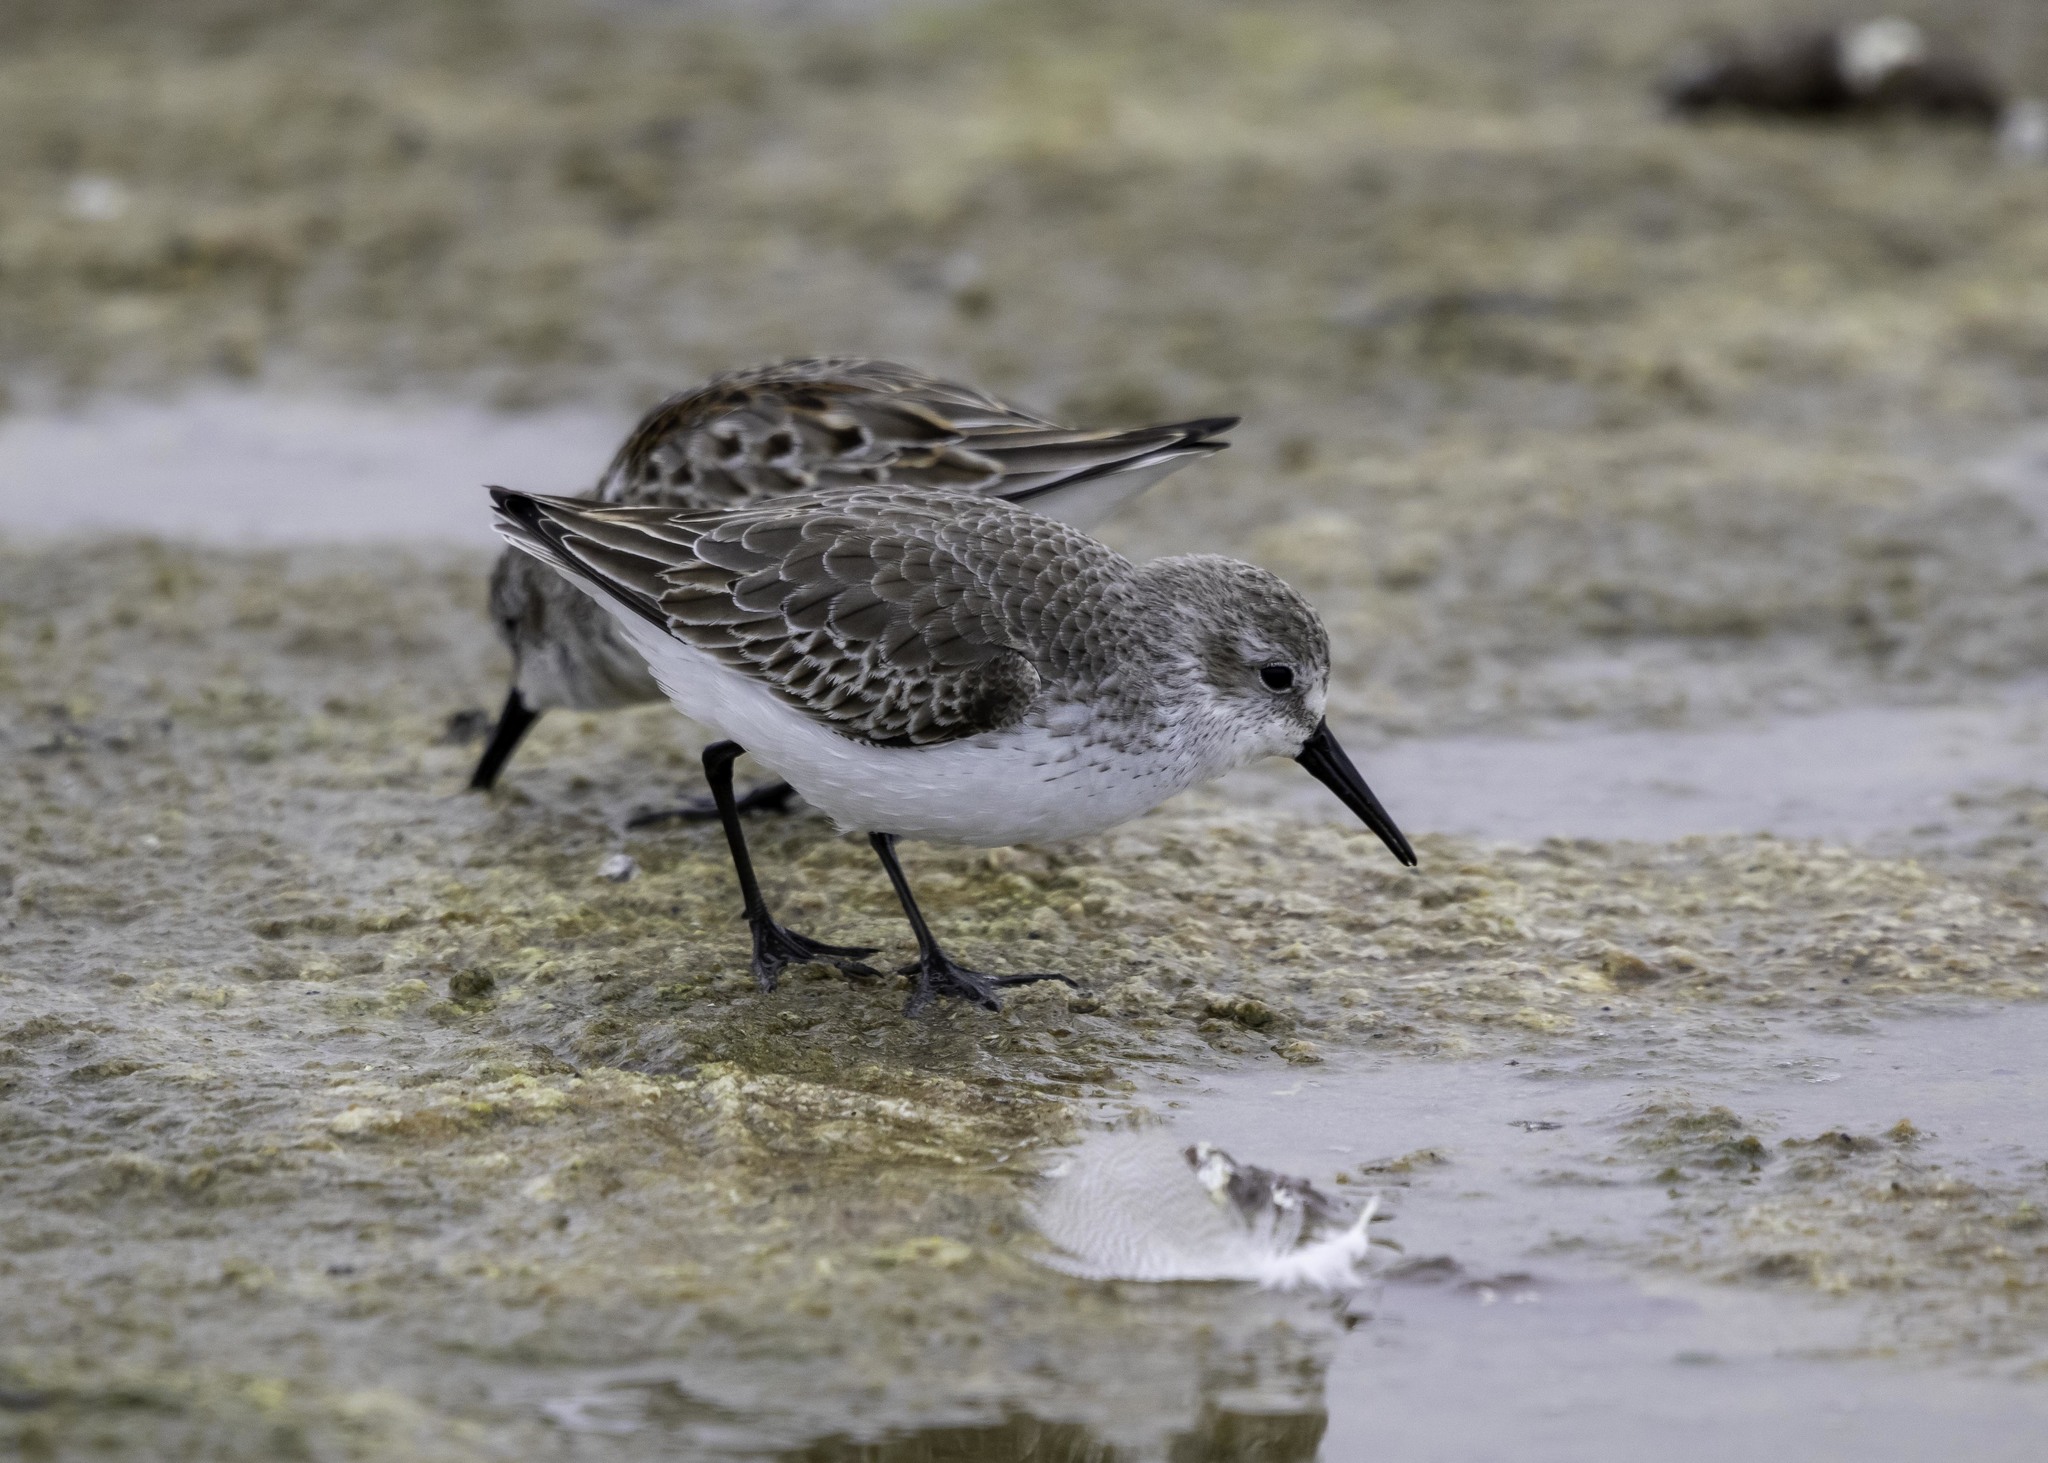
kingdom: Animalia
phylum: Chordata
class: Aves
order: Charadriiformes
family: Scolopacidae
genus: Calidris
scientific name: Calidris mauri
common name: Western sandpiper
